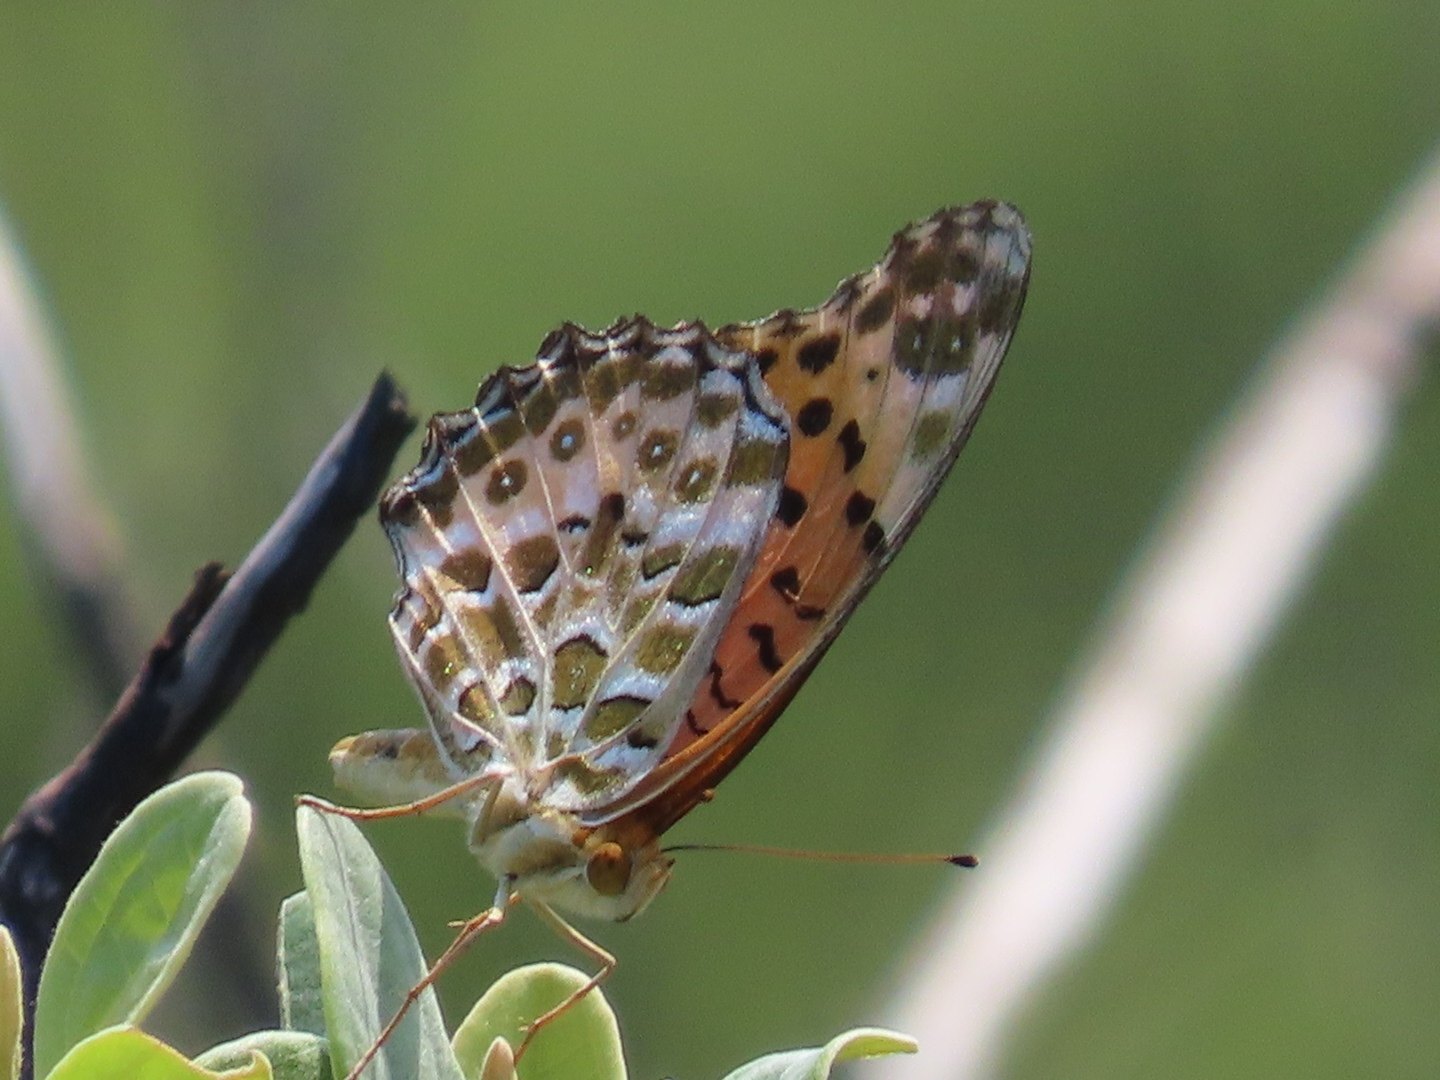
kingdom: Animalia
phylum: Arthropoda
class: Insecta
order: Lepidoptera
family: Nymphalidae
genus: Argynnis
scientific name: Argynnis hyperbius
